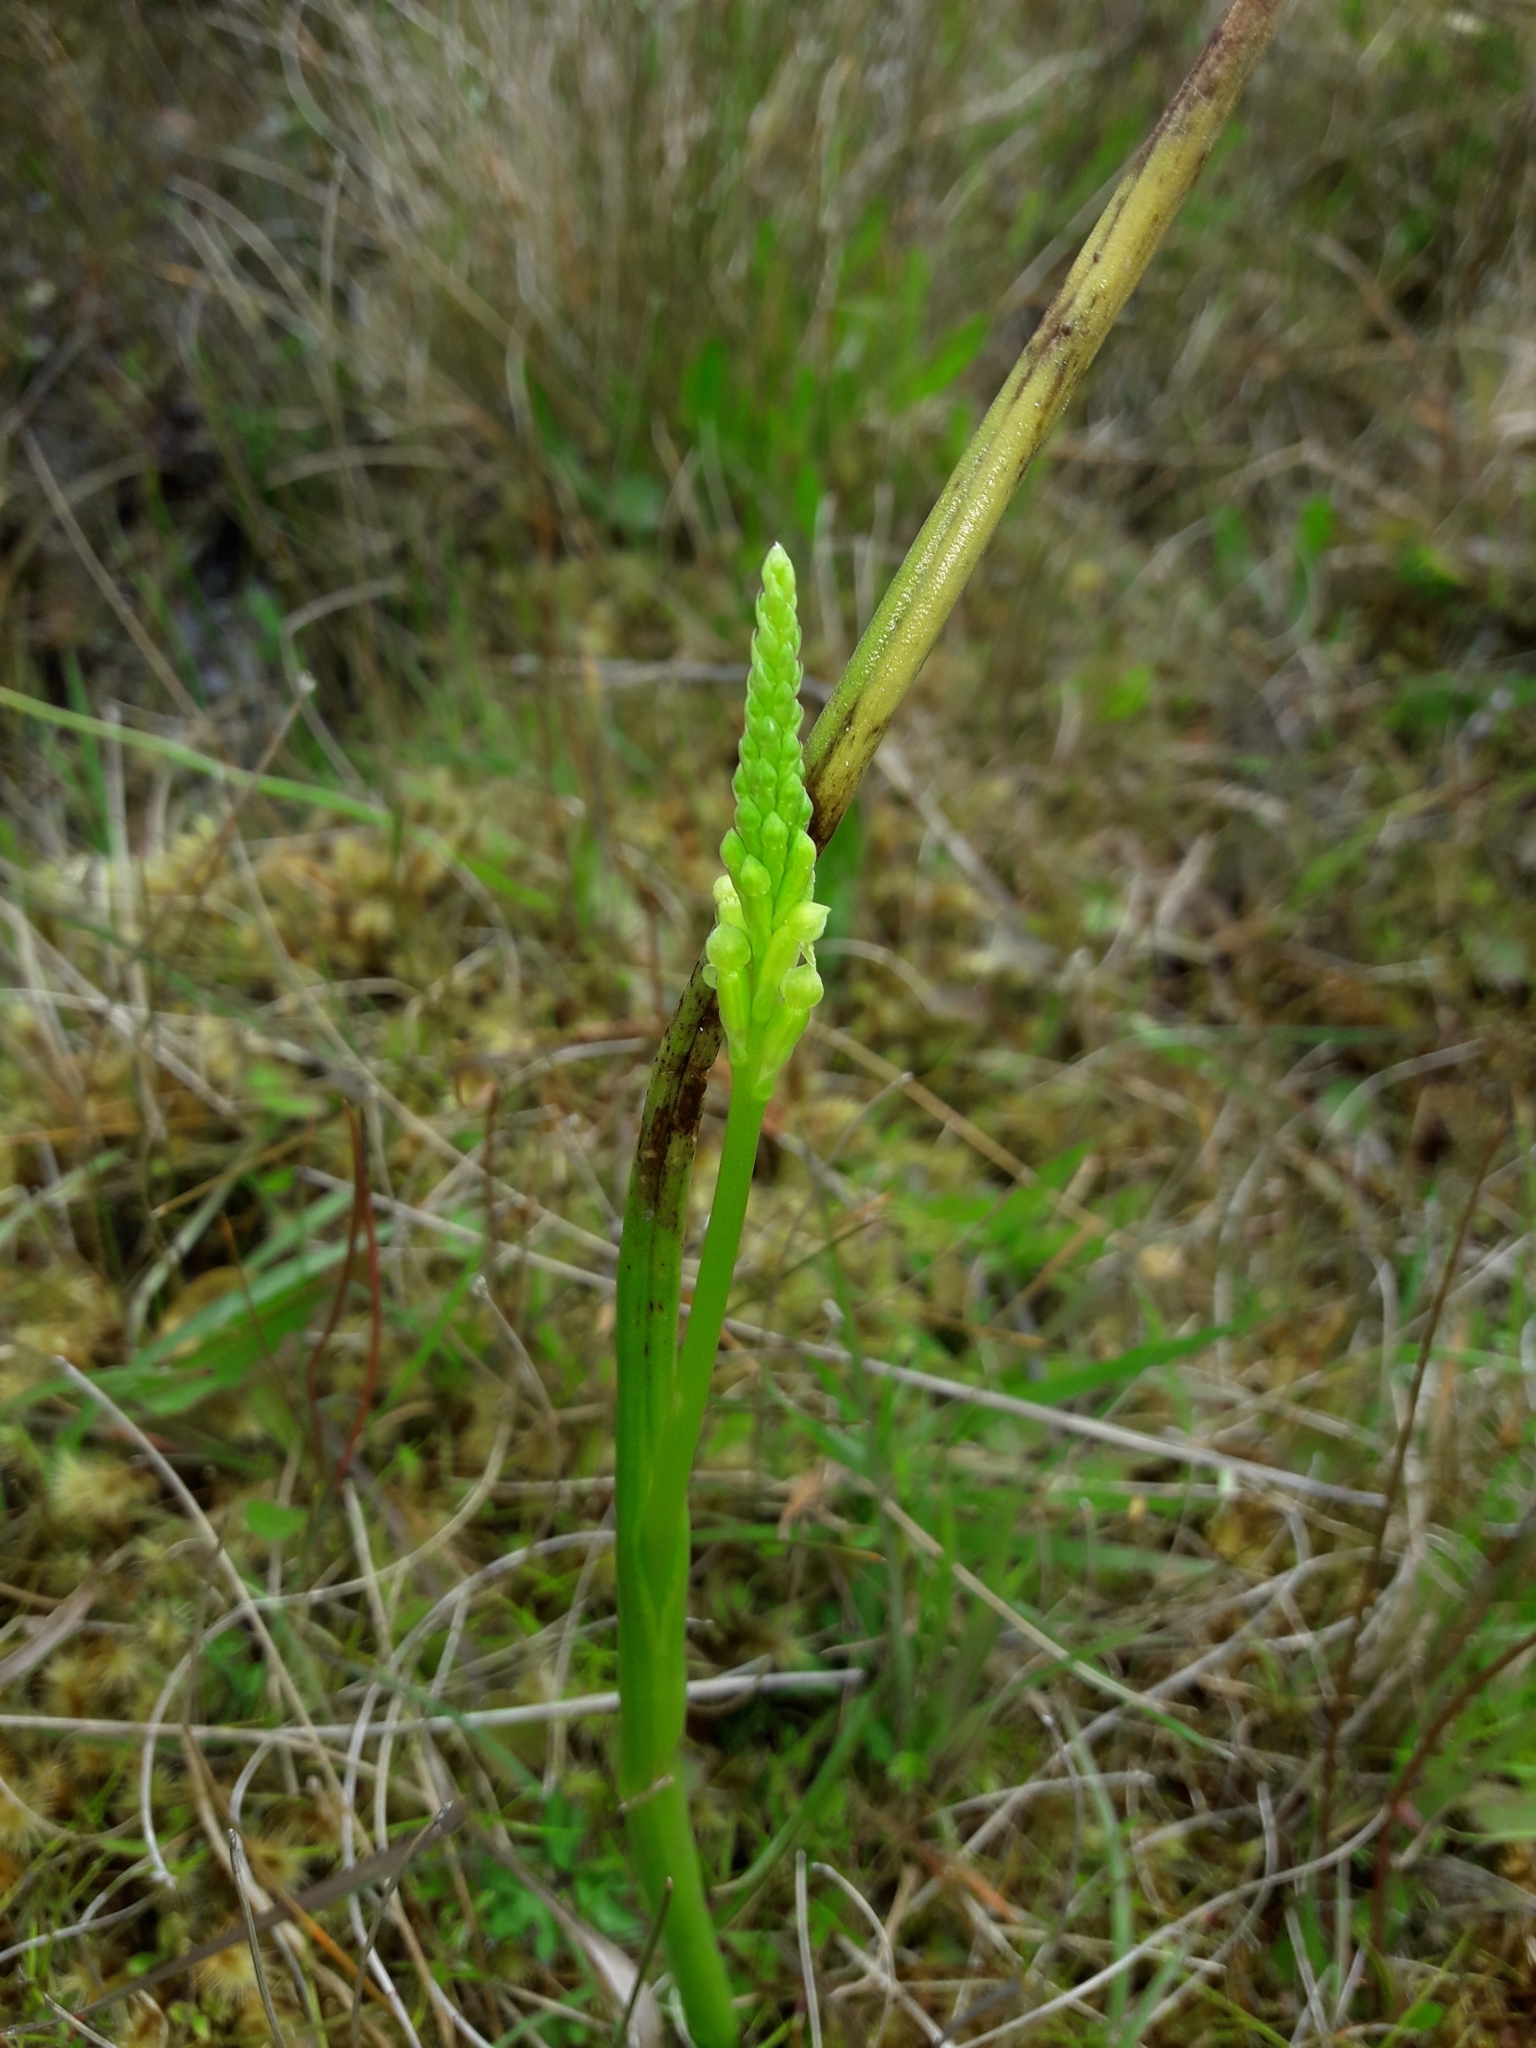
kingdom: Plantae
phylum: Tracheophyta
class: Liliopsida
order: Asparagales
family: Orchidaceae
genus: Microtis
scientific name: Microtis unifolia
